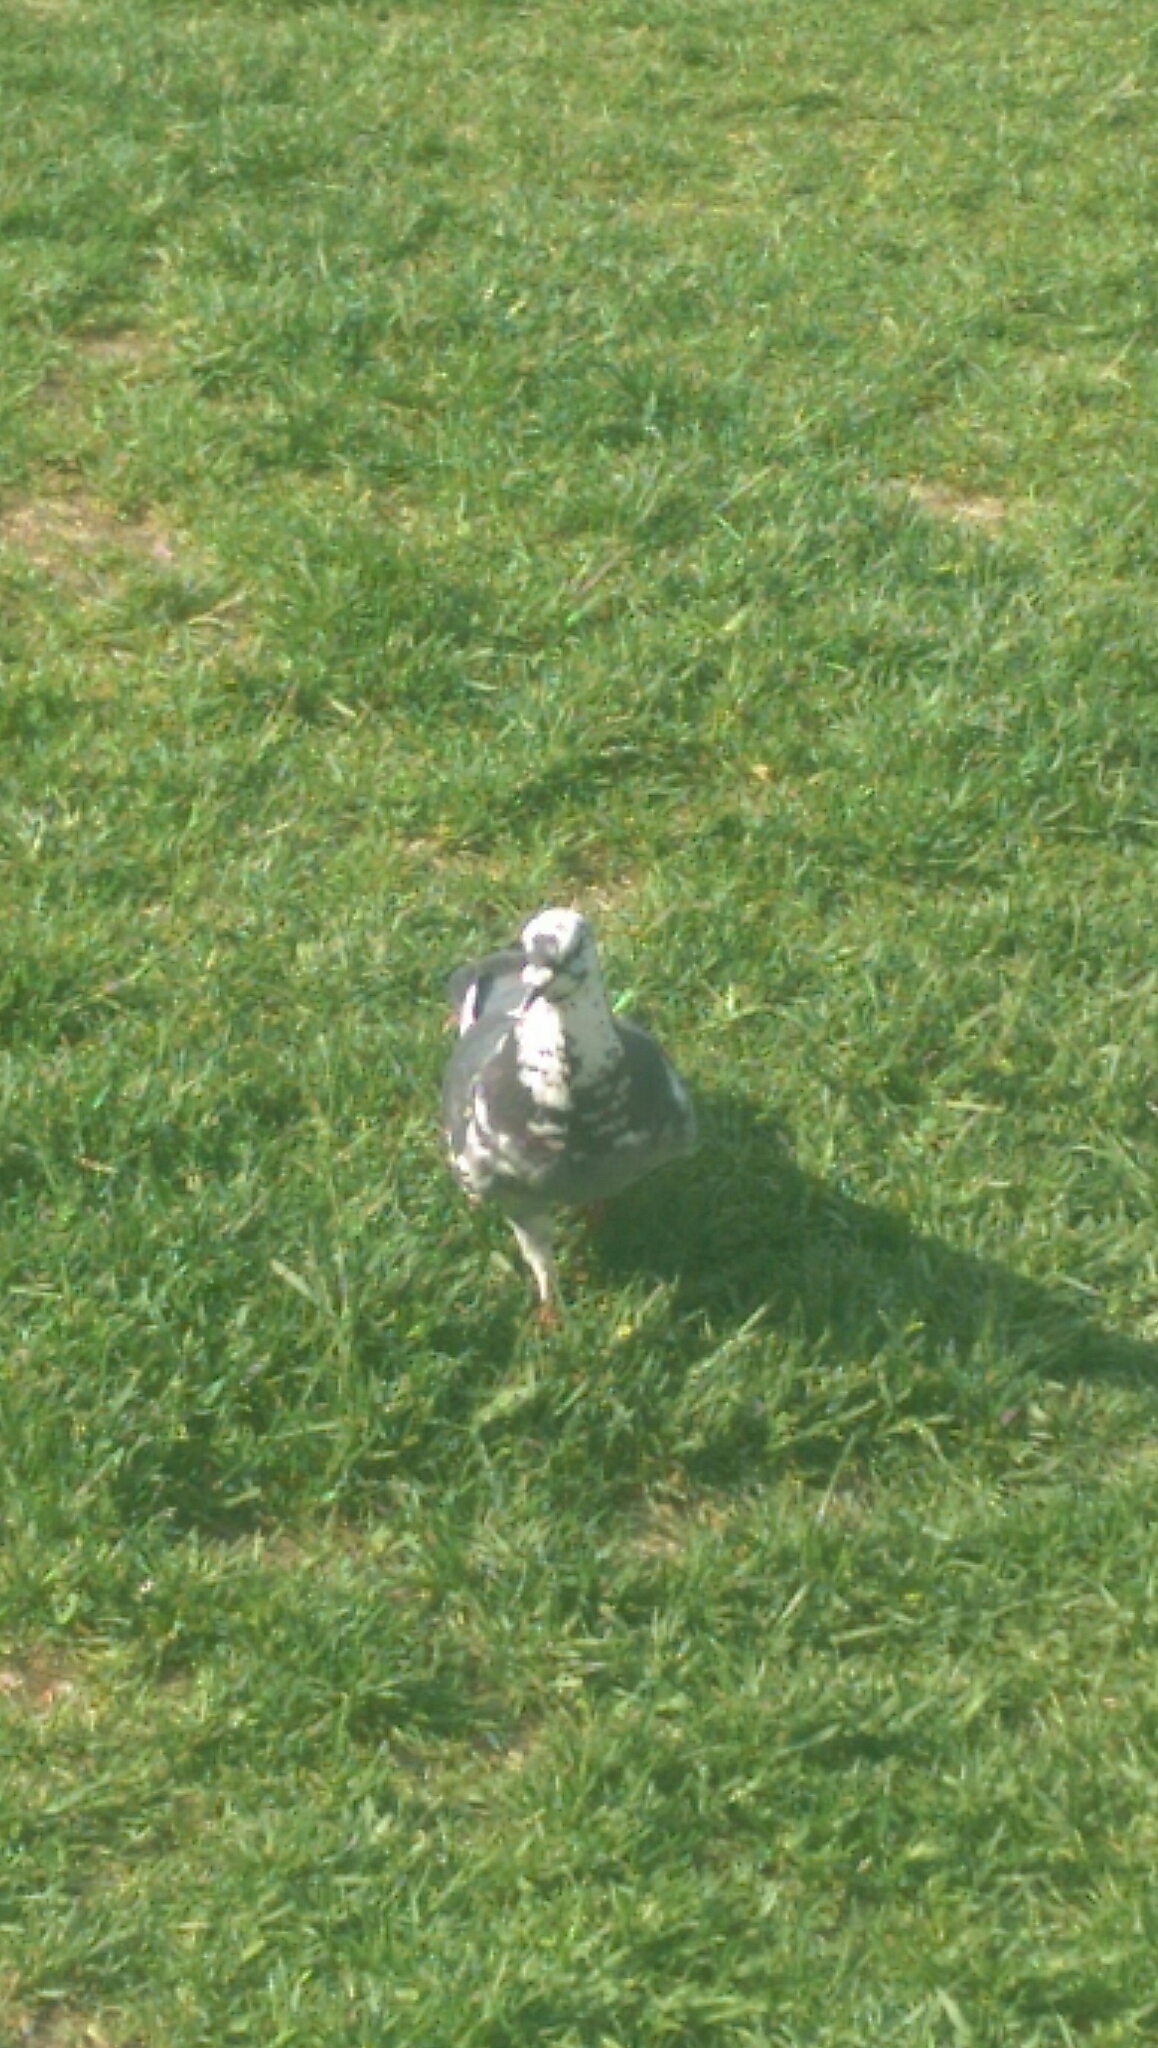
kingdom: Animalia
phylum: Chordata
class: Aves
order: Columbiformes
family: Columbidae
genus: Columba
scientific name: Columba livia
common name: Rock pigeon
